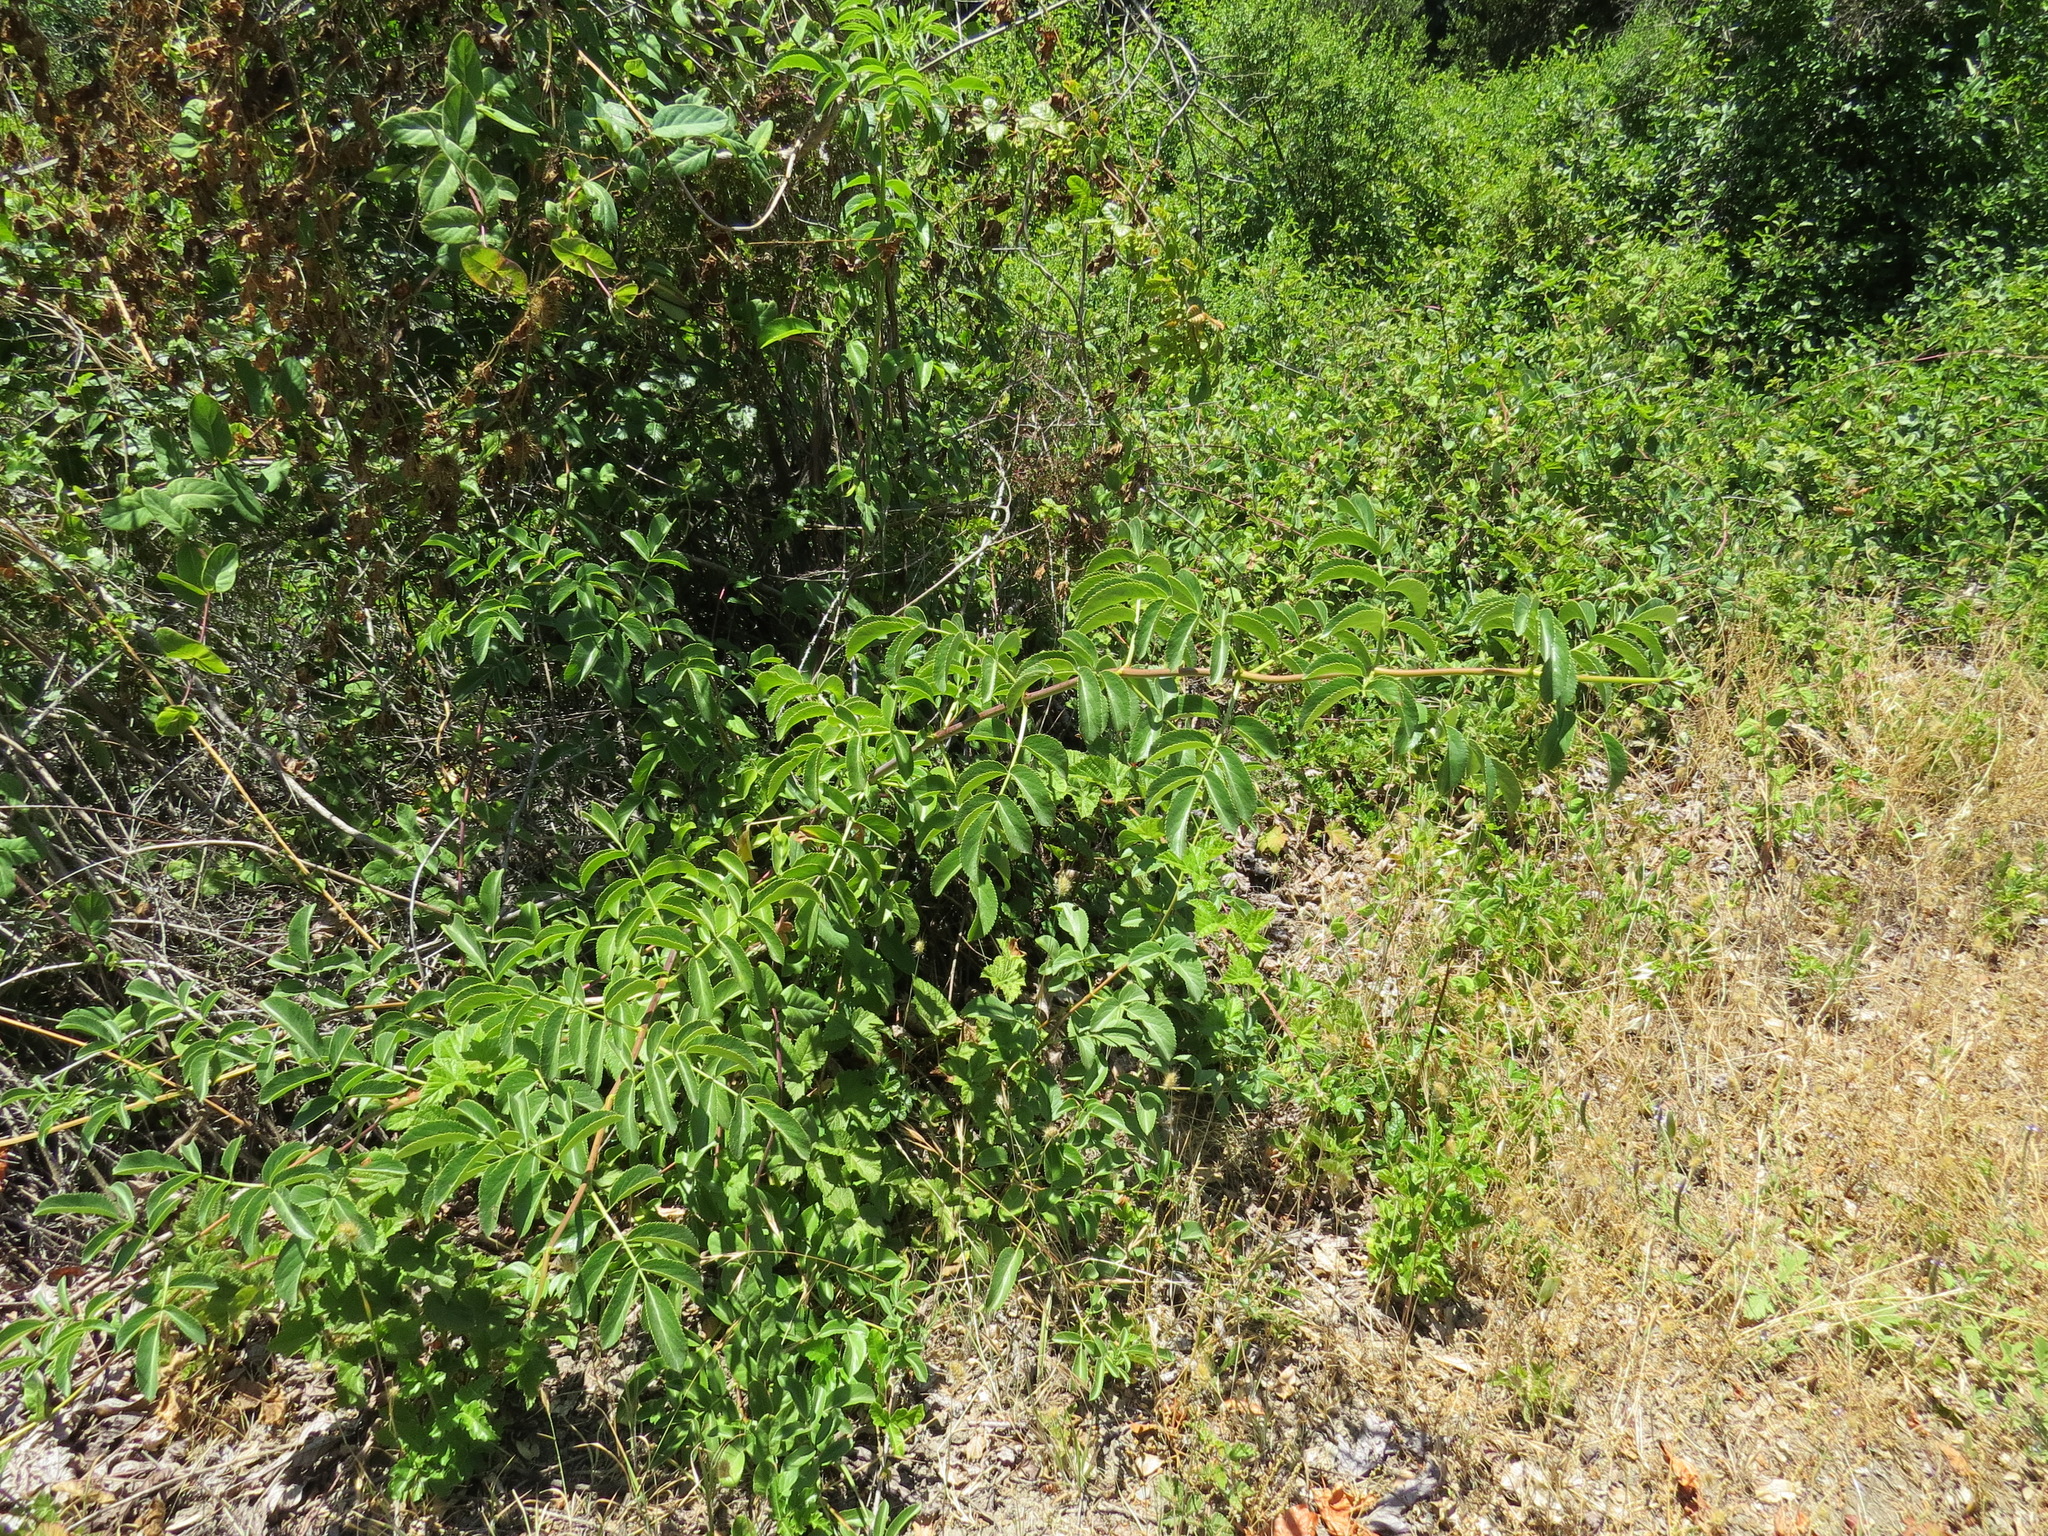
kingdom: Plantae
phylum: Tracheophyta
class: Magnoliopsida
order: Dipsacales
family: Viburnaceae
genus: Sambucus
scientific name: Sambucus cerulea
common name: Blue elder
